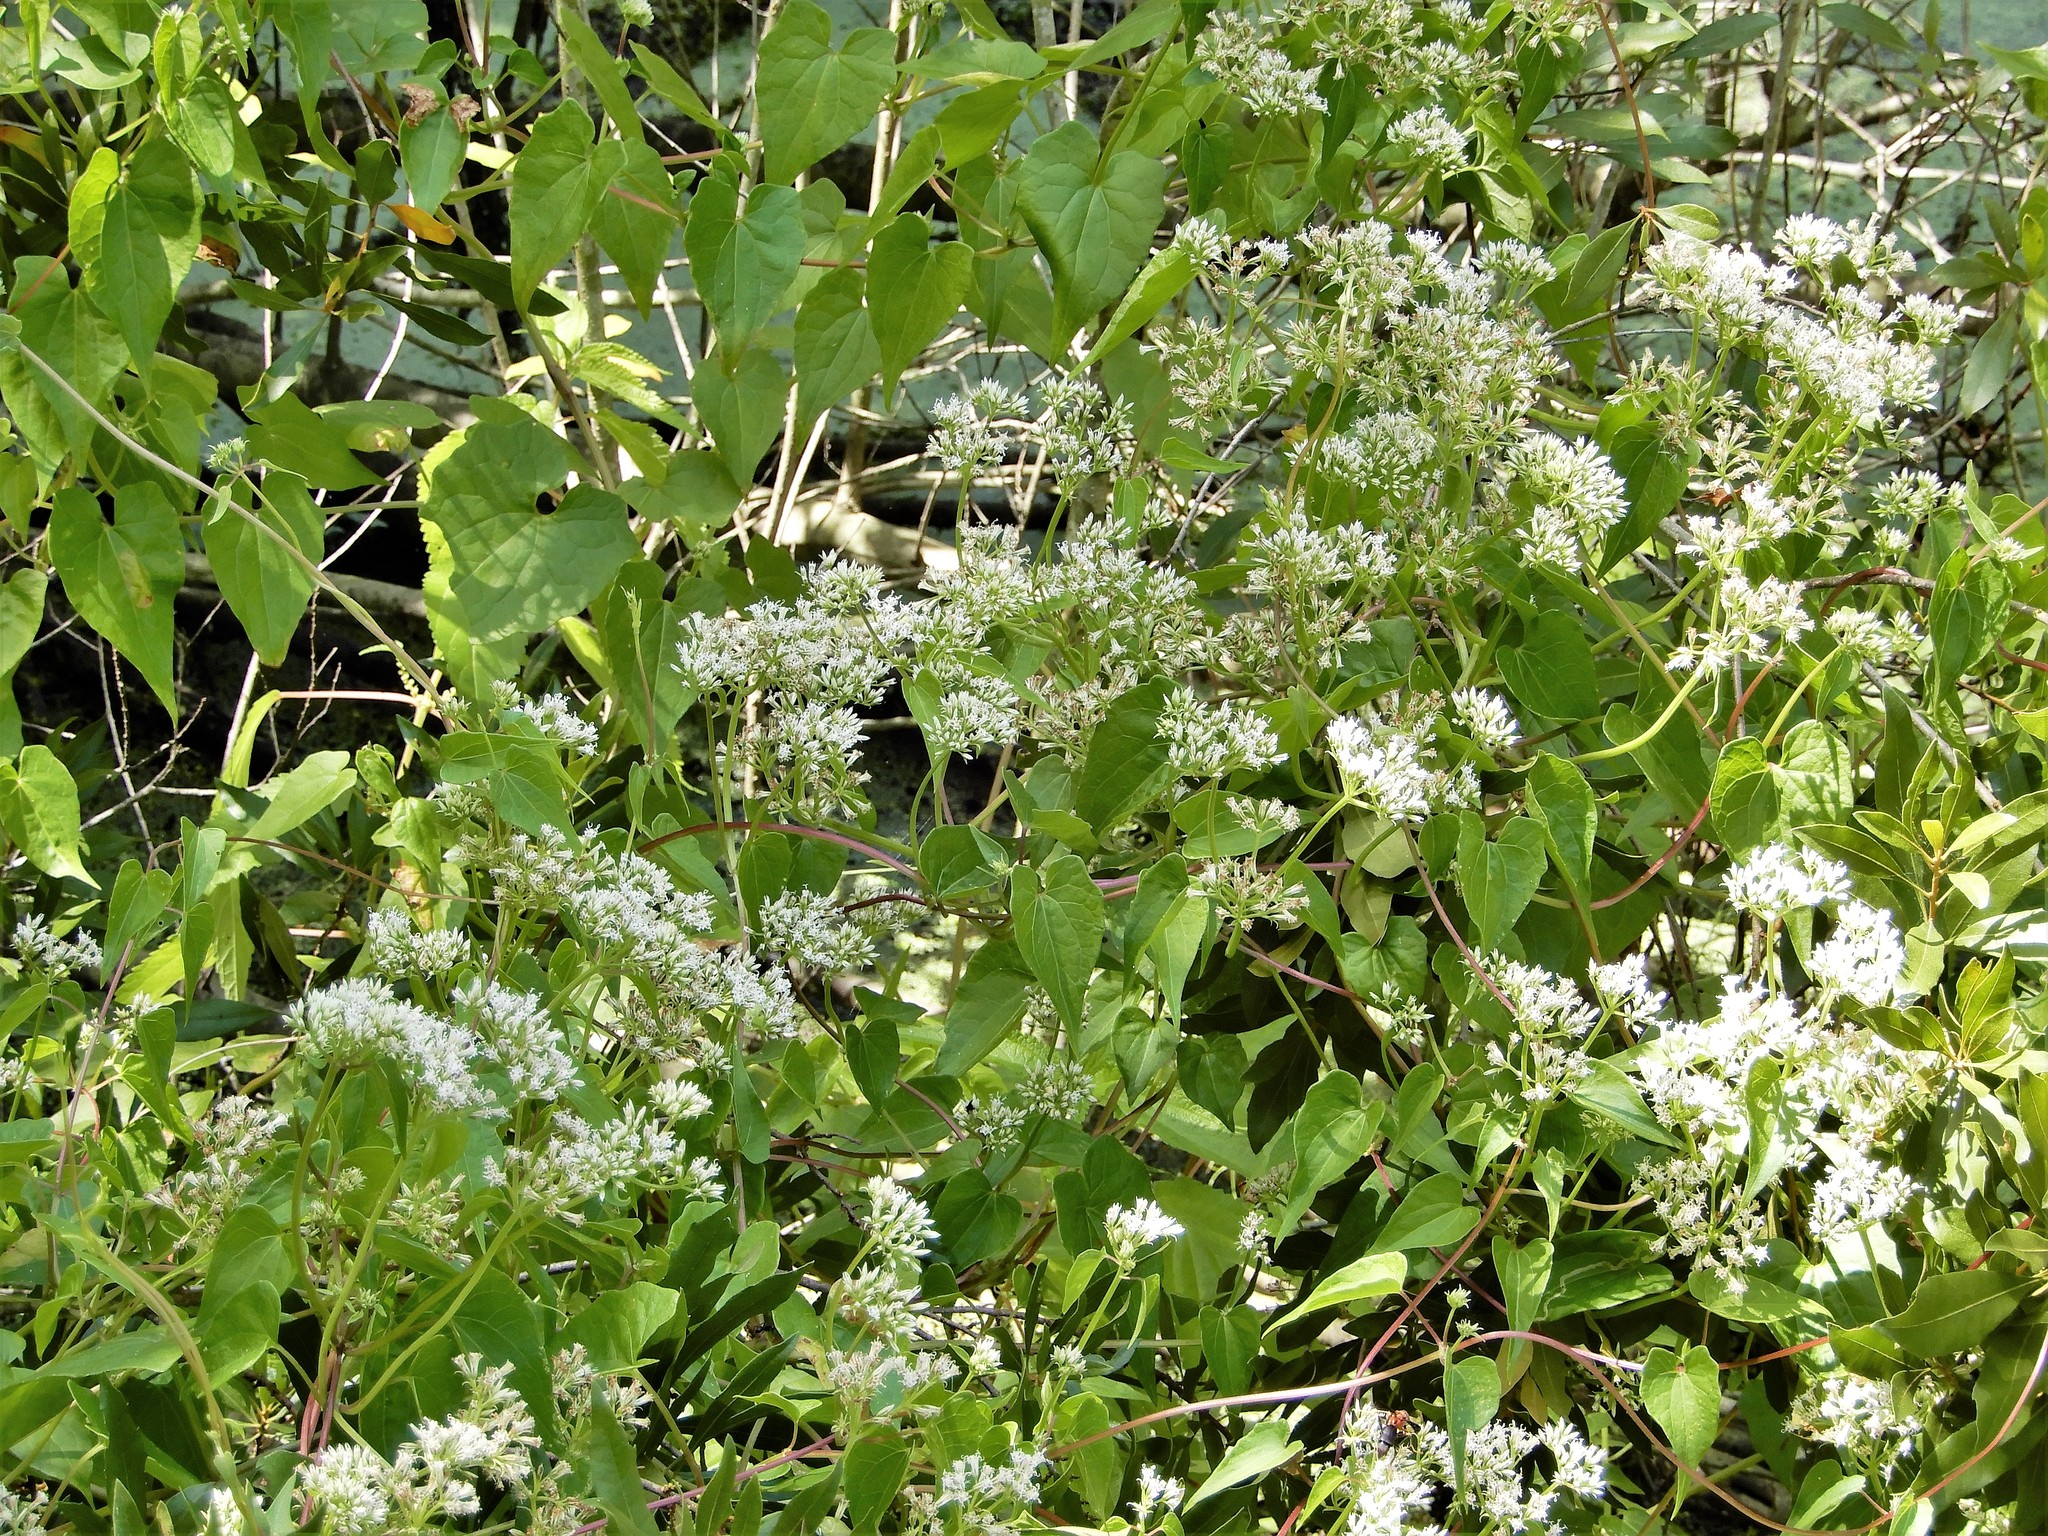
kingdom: Plantae
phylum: Tracheophyta
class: Magnoliopsida
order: Asterales
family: Asteraceae
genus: Mikania
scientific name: Mikania scandens
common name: Climbing hempvine
